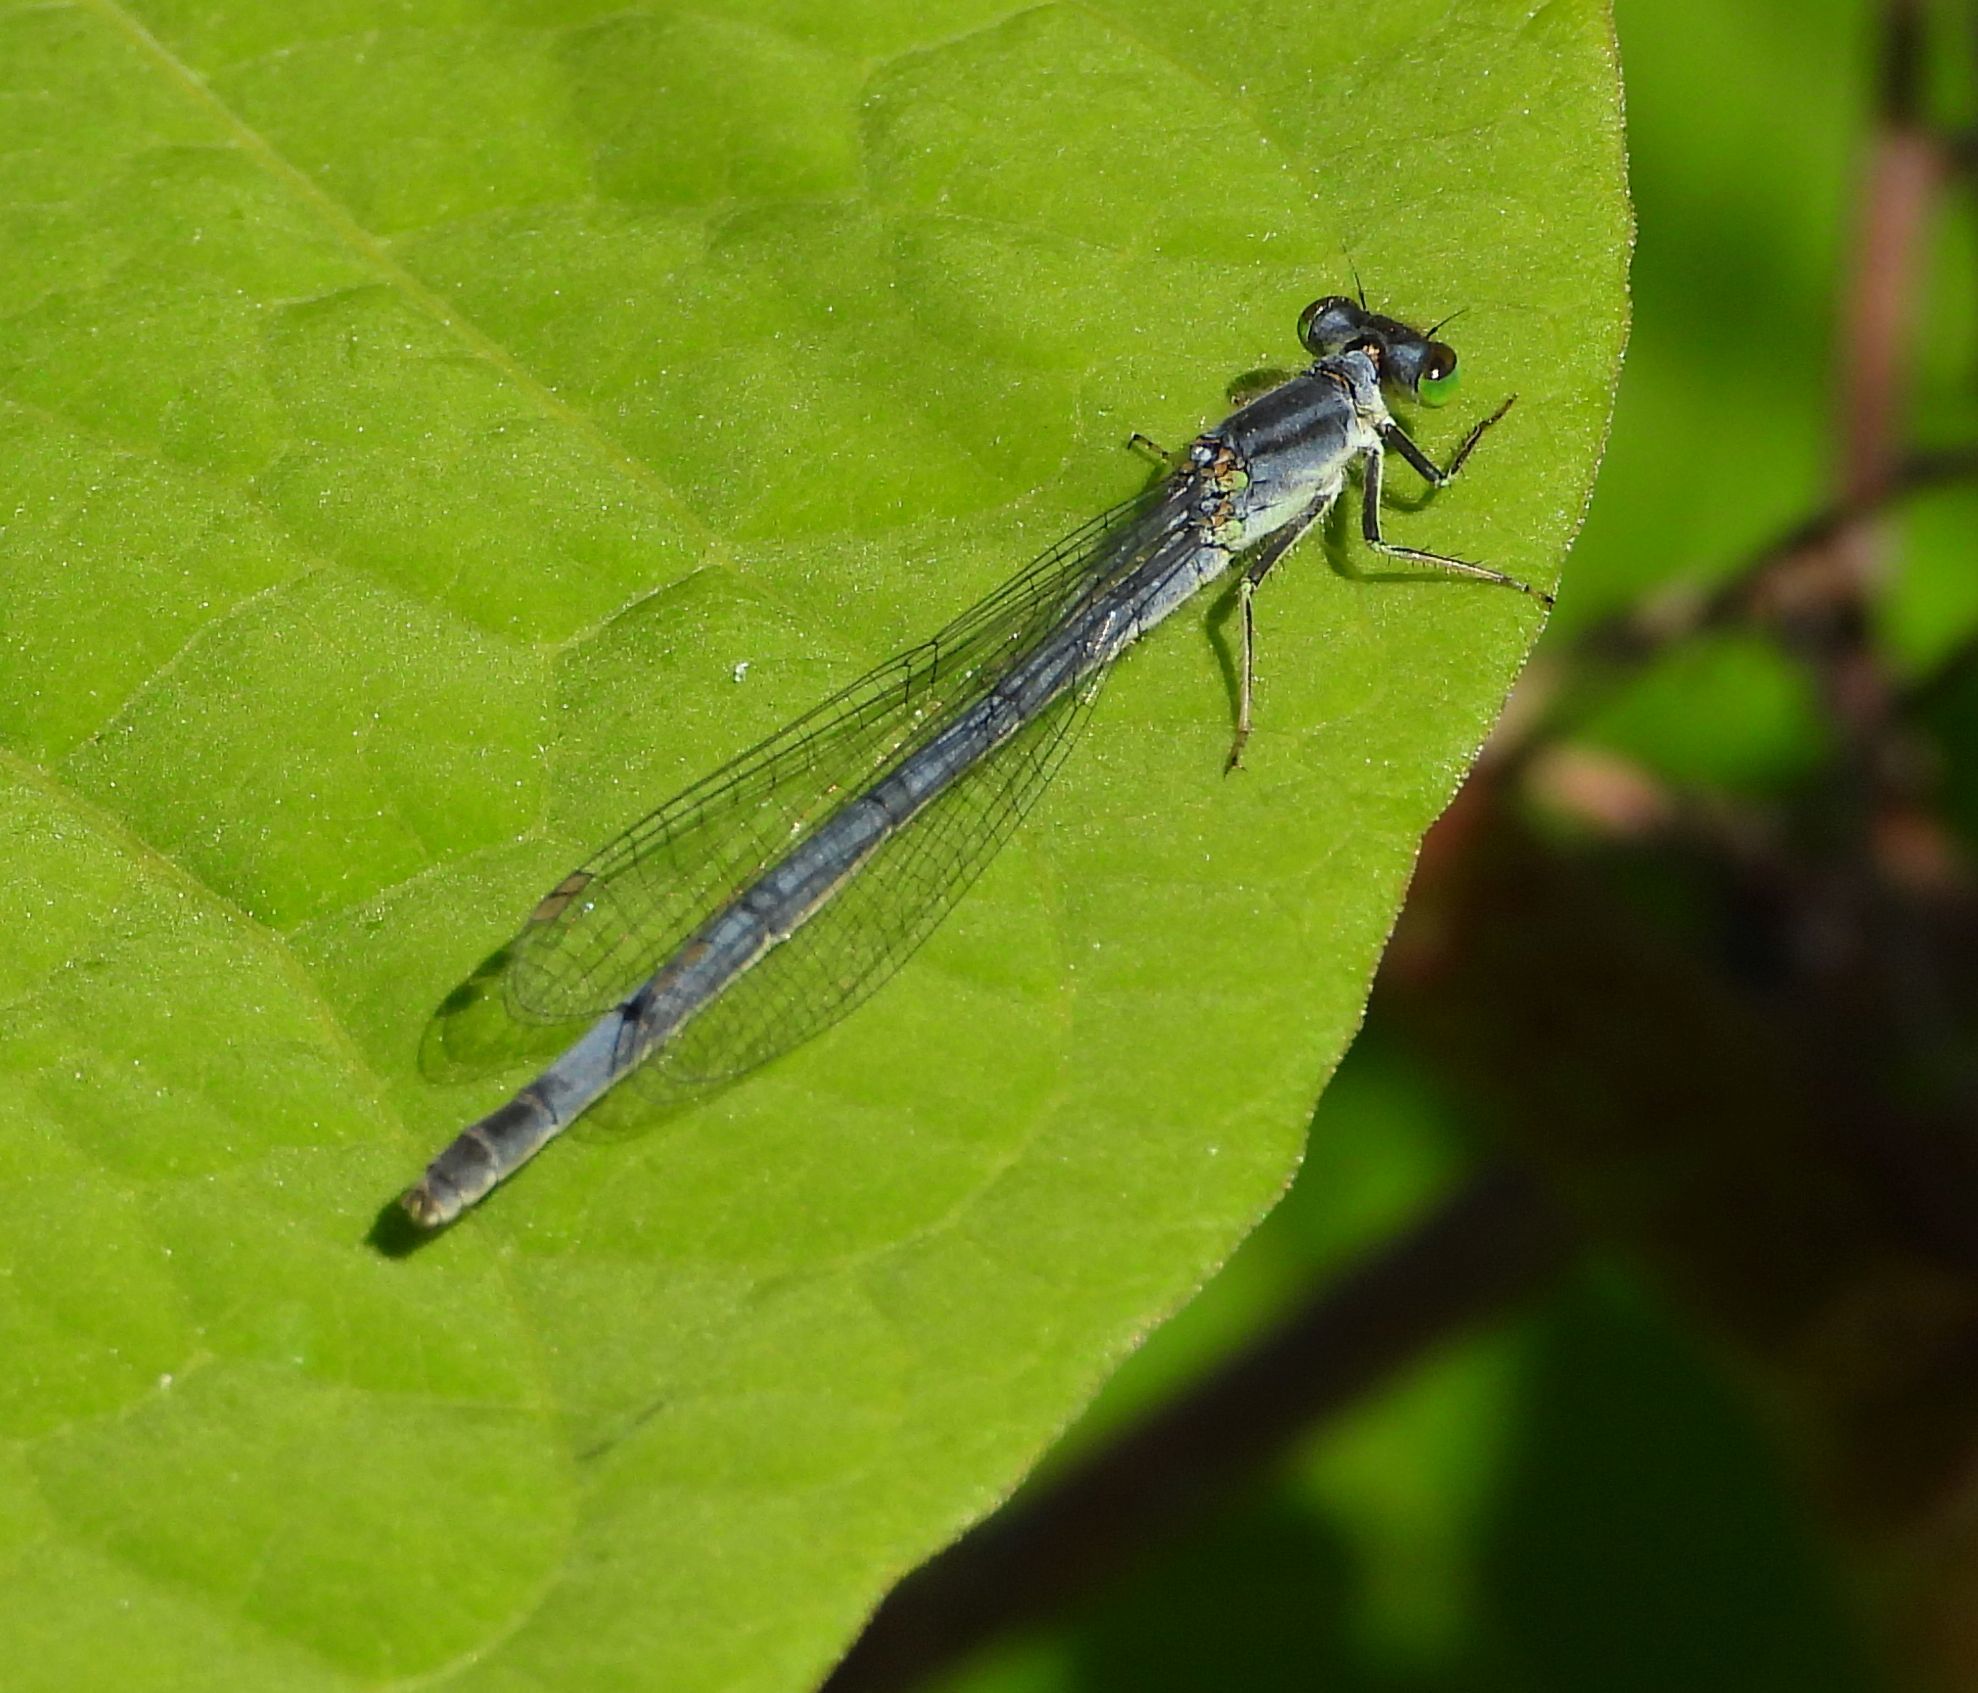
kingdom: Animalia
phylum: Arthropoda
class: Insecta
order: Odonata
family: Coenagrionidae
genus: Ischnura
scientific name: Ischnura verticalis
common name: Eastern forktail
